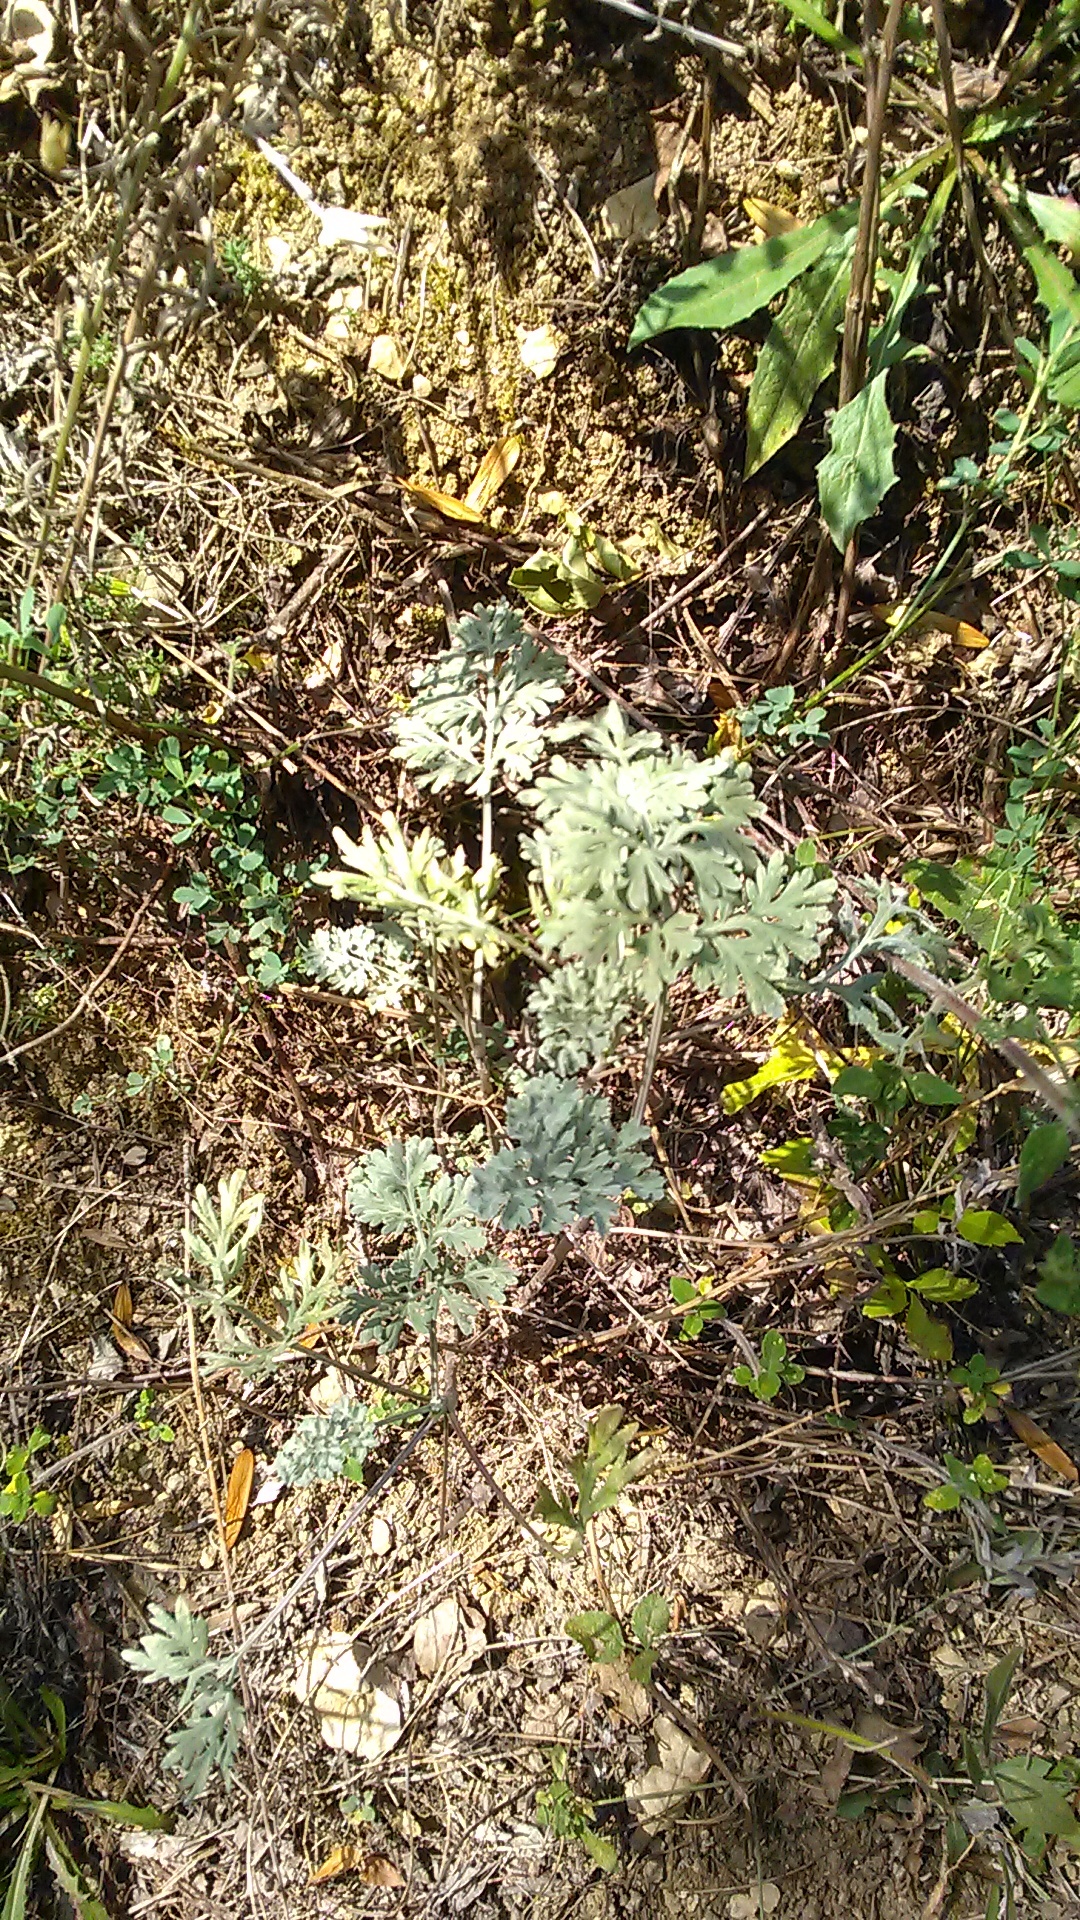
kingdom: Plantae
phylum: Tracheophyta
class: Magnoliopsida
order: Asterales
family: Asteraceae
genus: Artemisia
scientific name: Artemisia absinthium
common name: Wormwood
